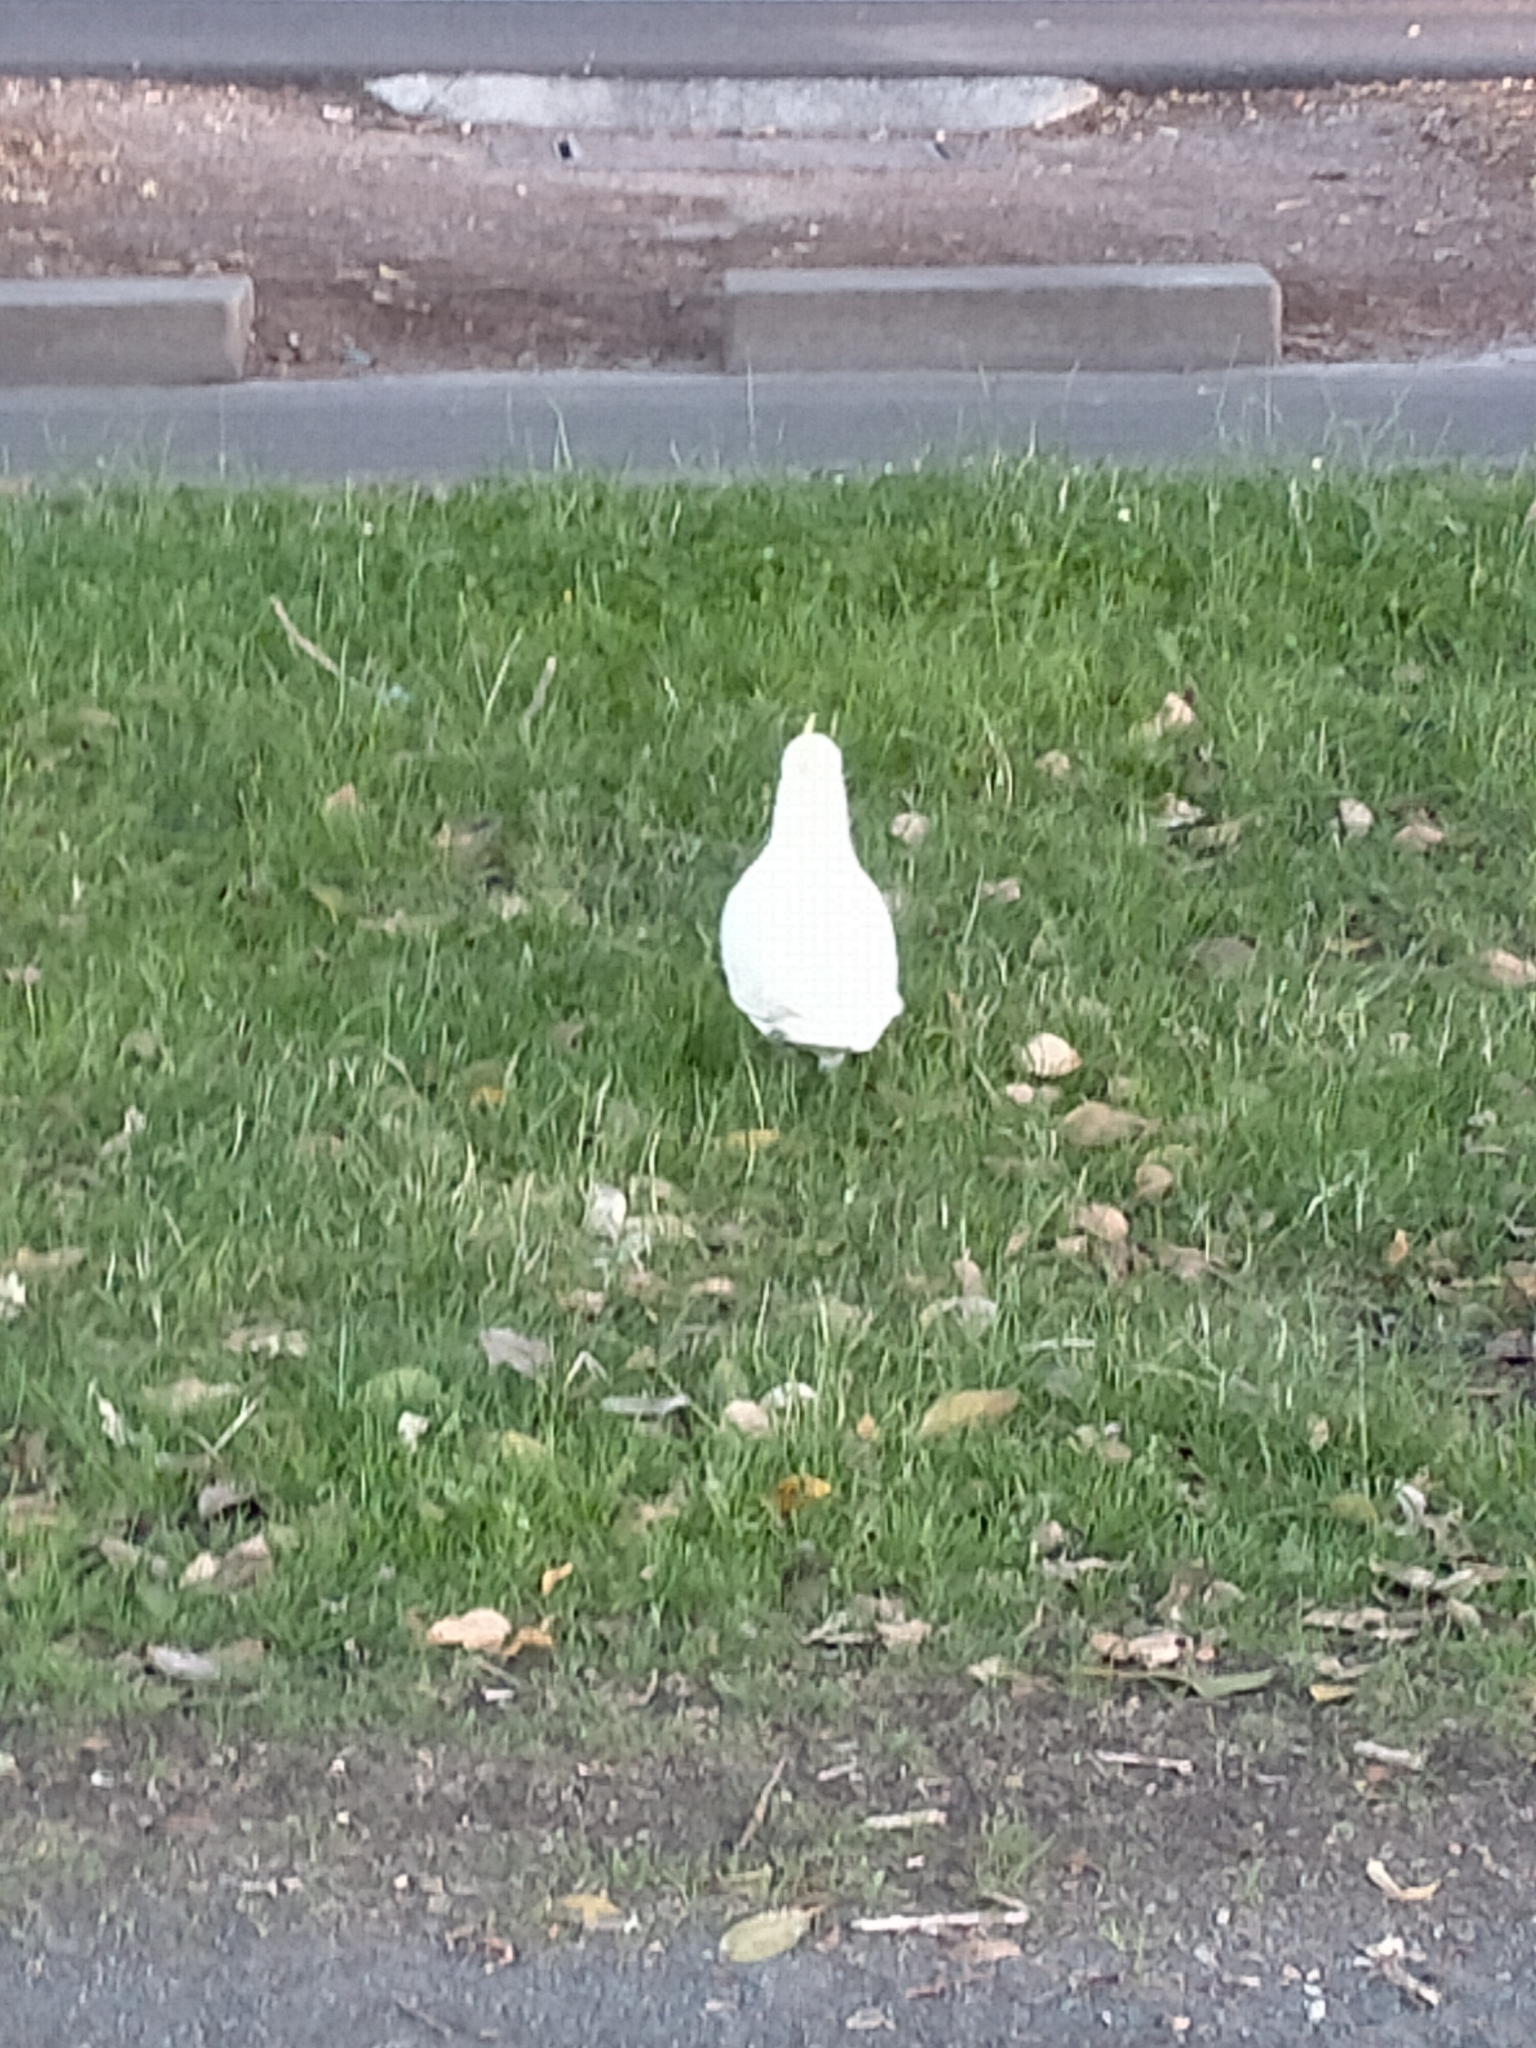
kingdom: Animalia
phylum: Chordata
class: Aves
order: Psittaciformes
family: Psittacidae
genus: Cacatua
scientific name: Cacatua galerita
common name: Sulphur-crested cockatoo
